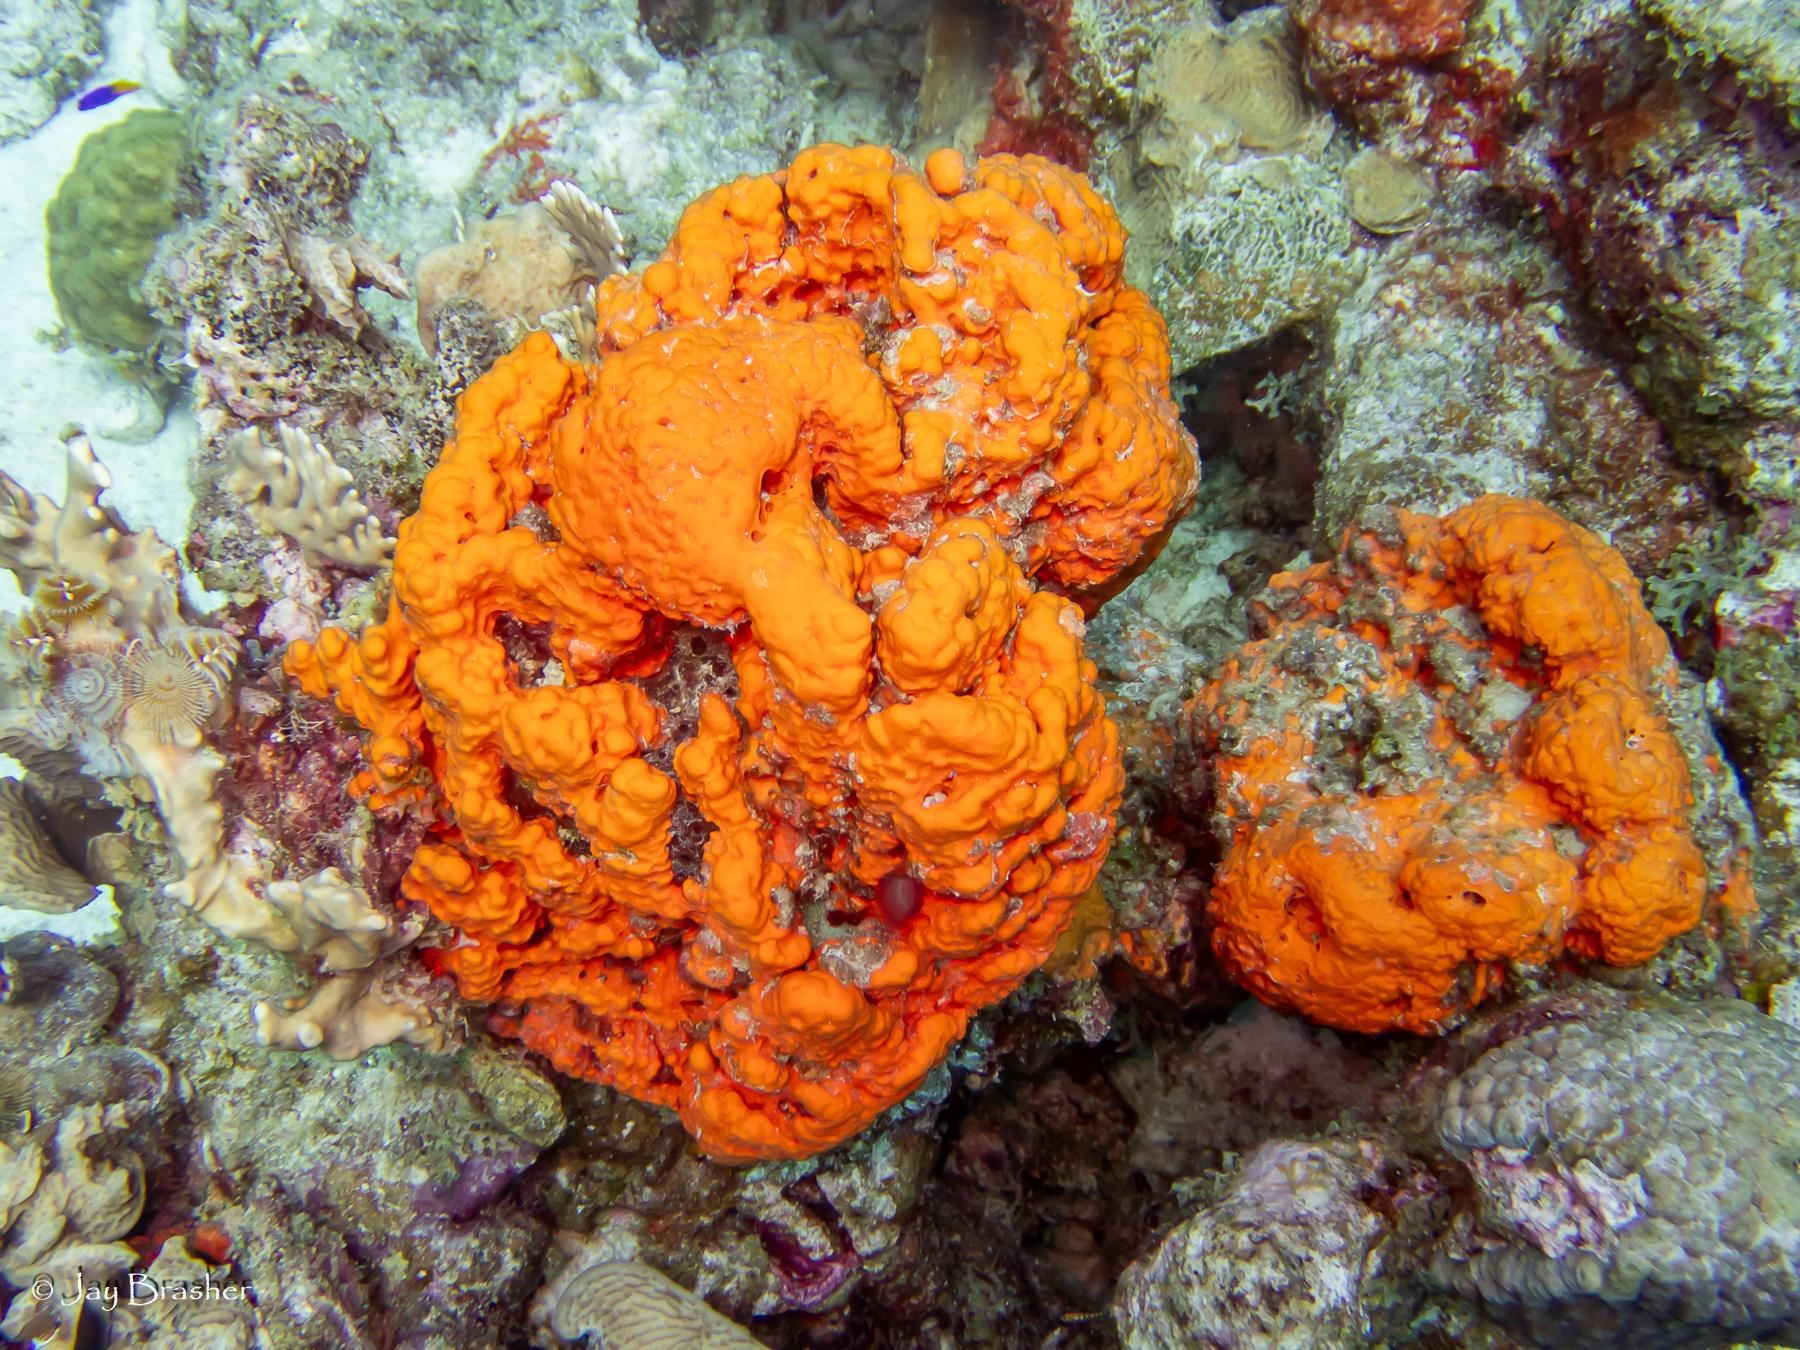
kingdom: Animalia
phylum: Porifera
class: Demospongiae
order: Agelasida
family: Agelasidae
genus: Agelas
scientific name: Agelas clathrodes
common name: Orange elephant ear sponge
